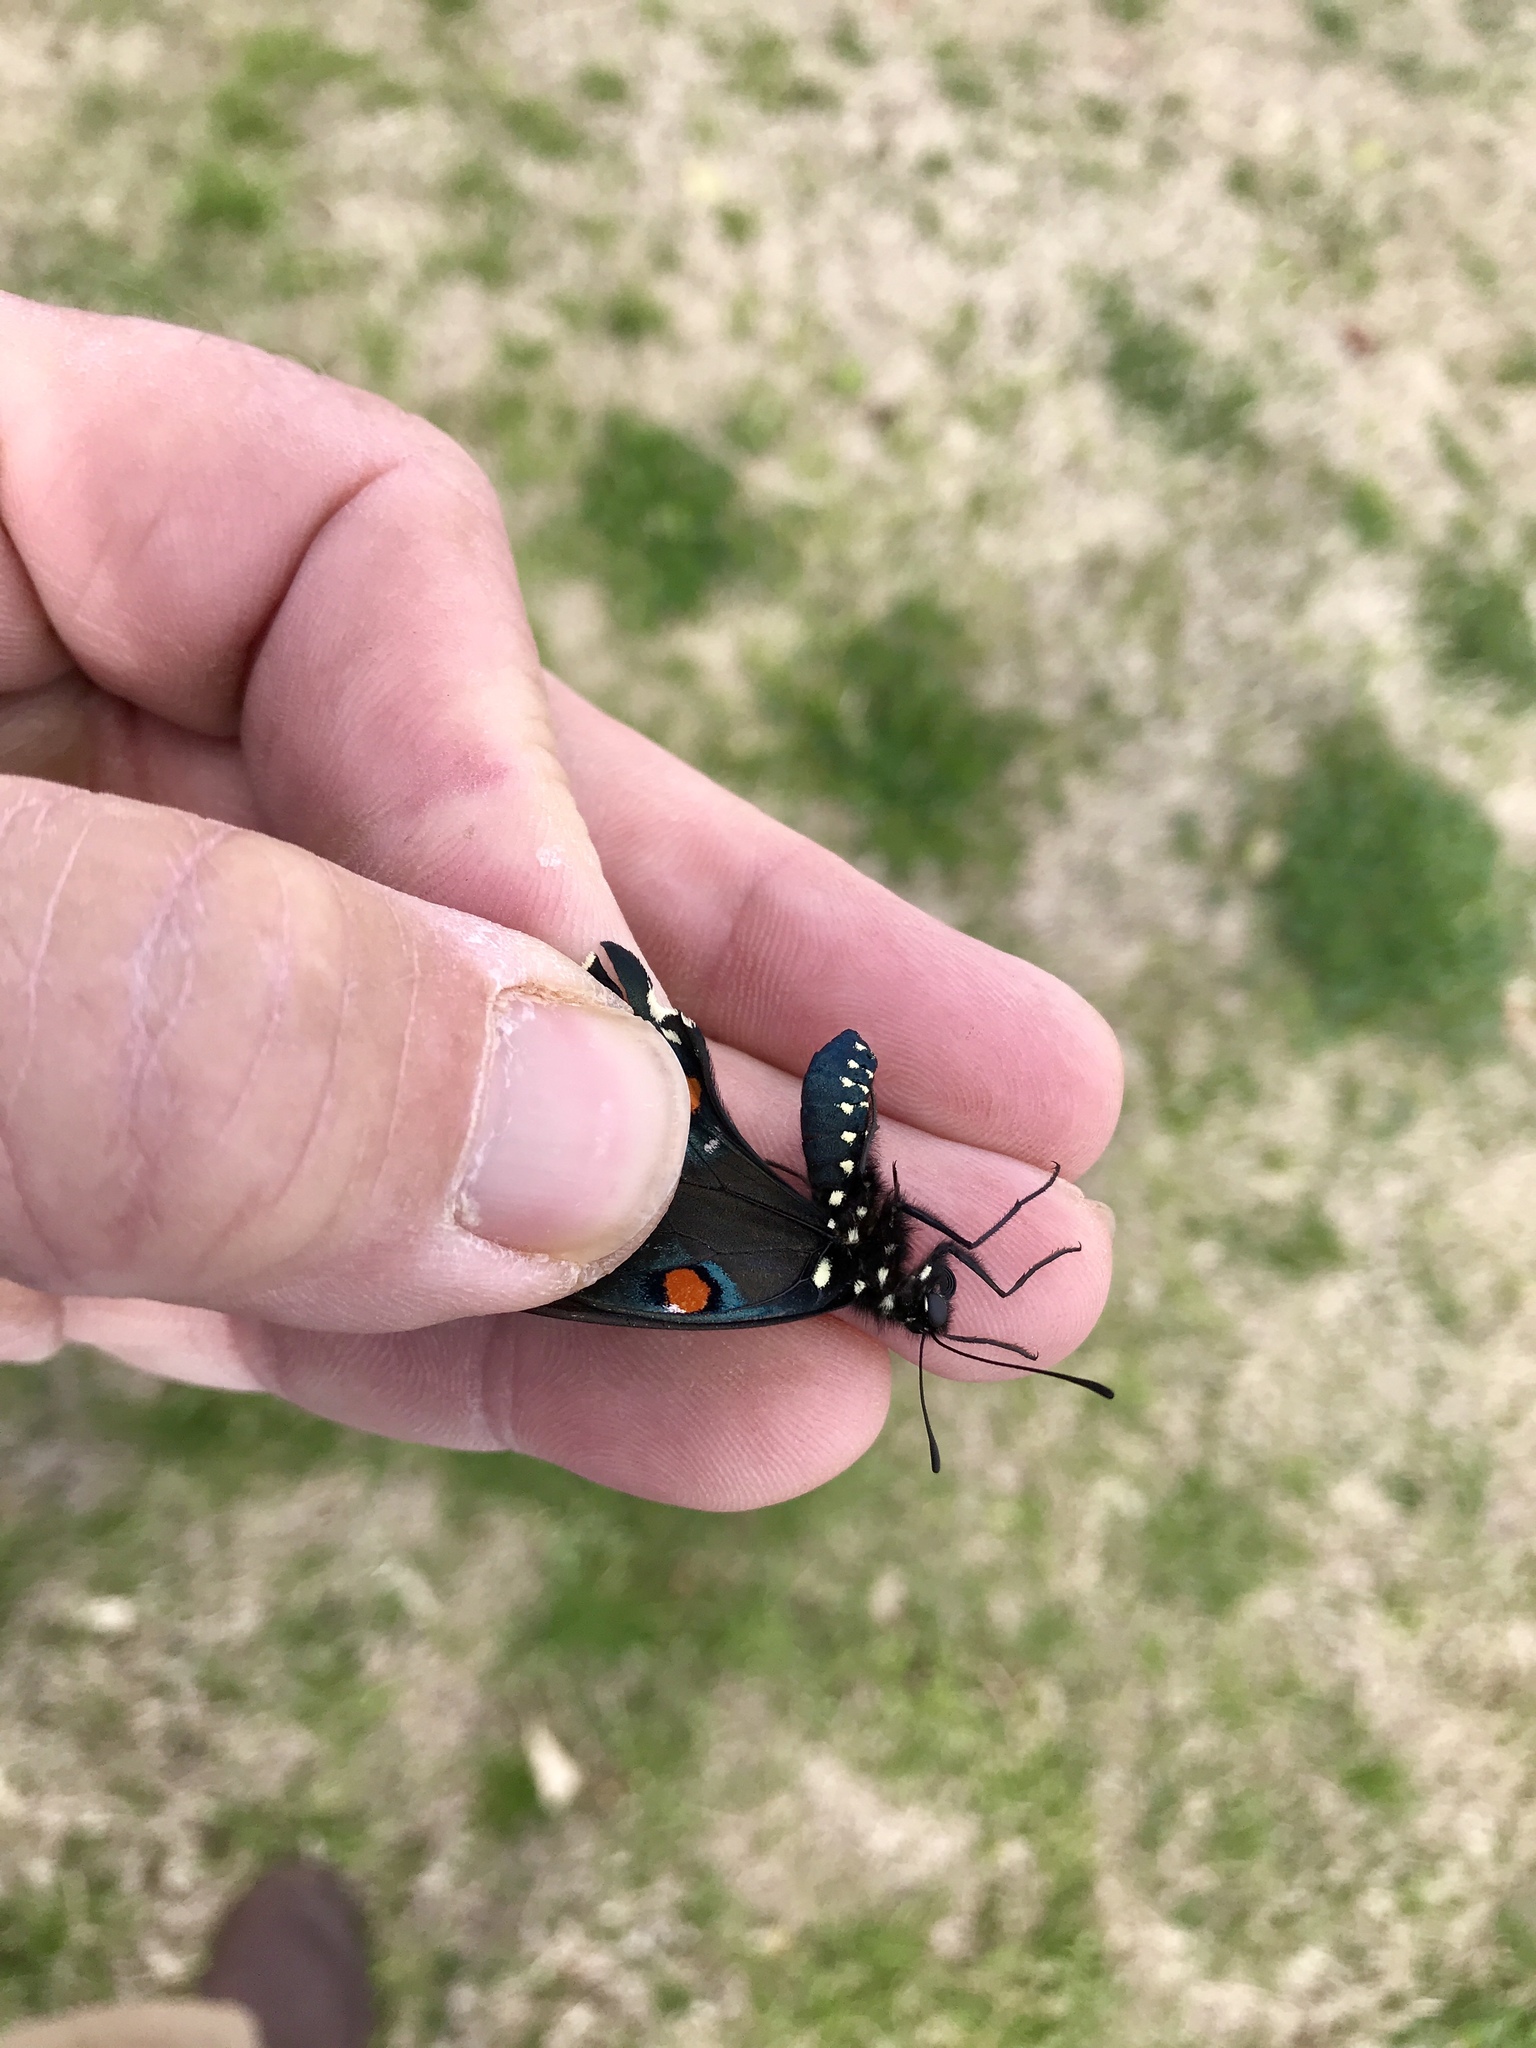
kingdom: Animalia
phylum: Arthropoda
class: Insecta
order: Lepidoptera
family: Papilionidae
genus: Battus
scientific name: Battus philenor
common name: Pipevine swallowtail
